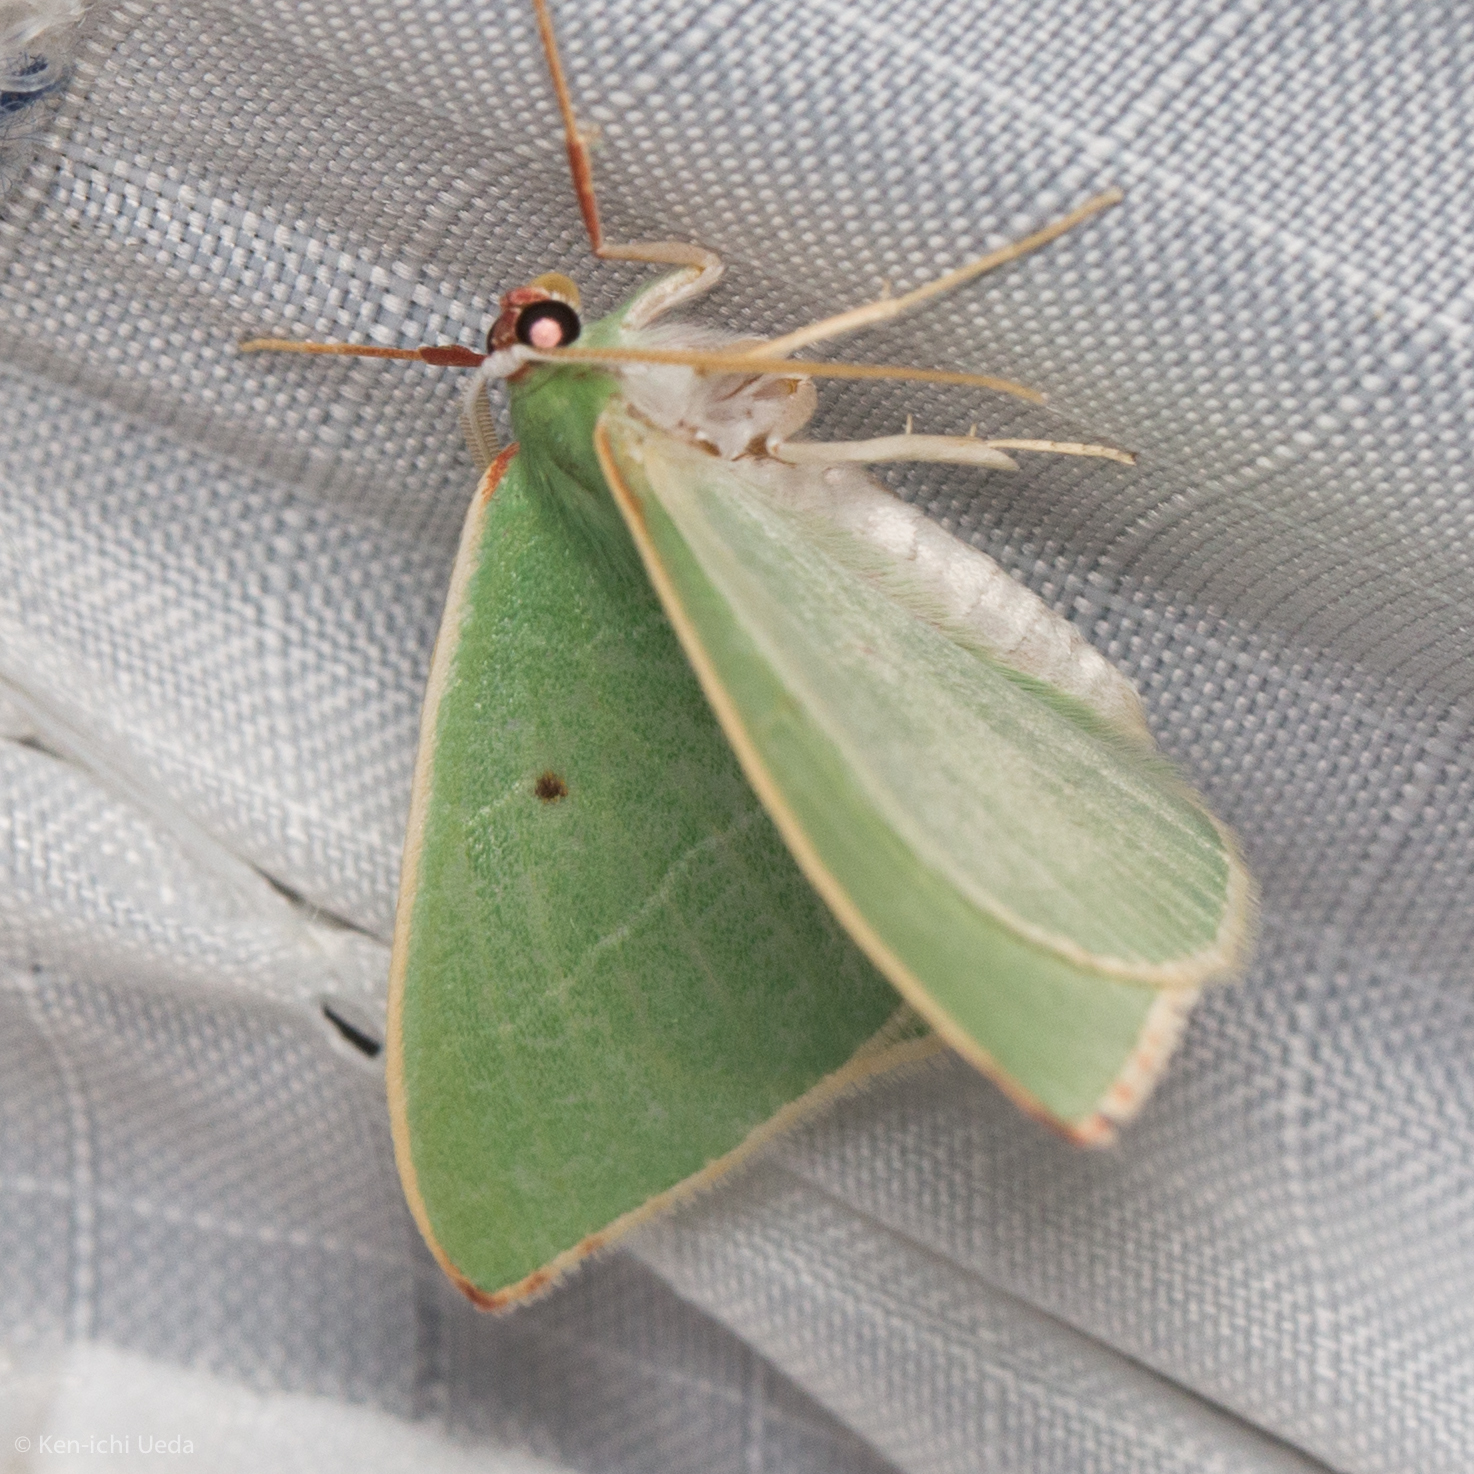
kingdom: Animalia
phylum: Arthropoda
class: Insecta
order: Lepidoptera
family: Geometridae
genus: Nemoria
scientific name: Nemoria darwiniata
